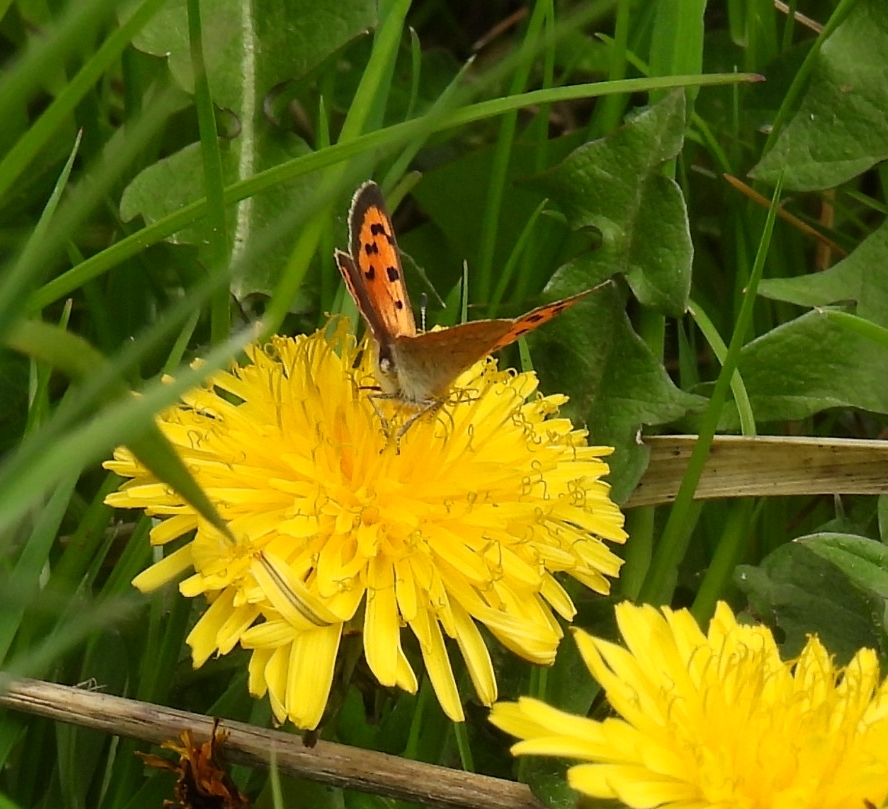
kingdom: Animalia
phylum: Arthropoda
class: Insecta
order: Lepidoptera
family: Lycaenidae
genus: Lycaena
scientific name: Lycaena phlaeas
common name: Small copper
